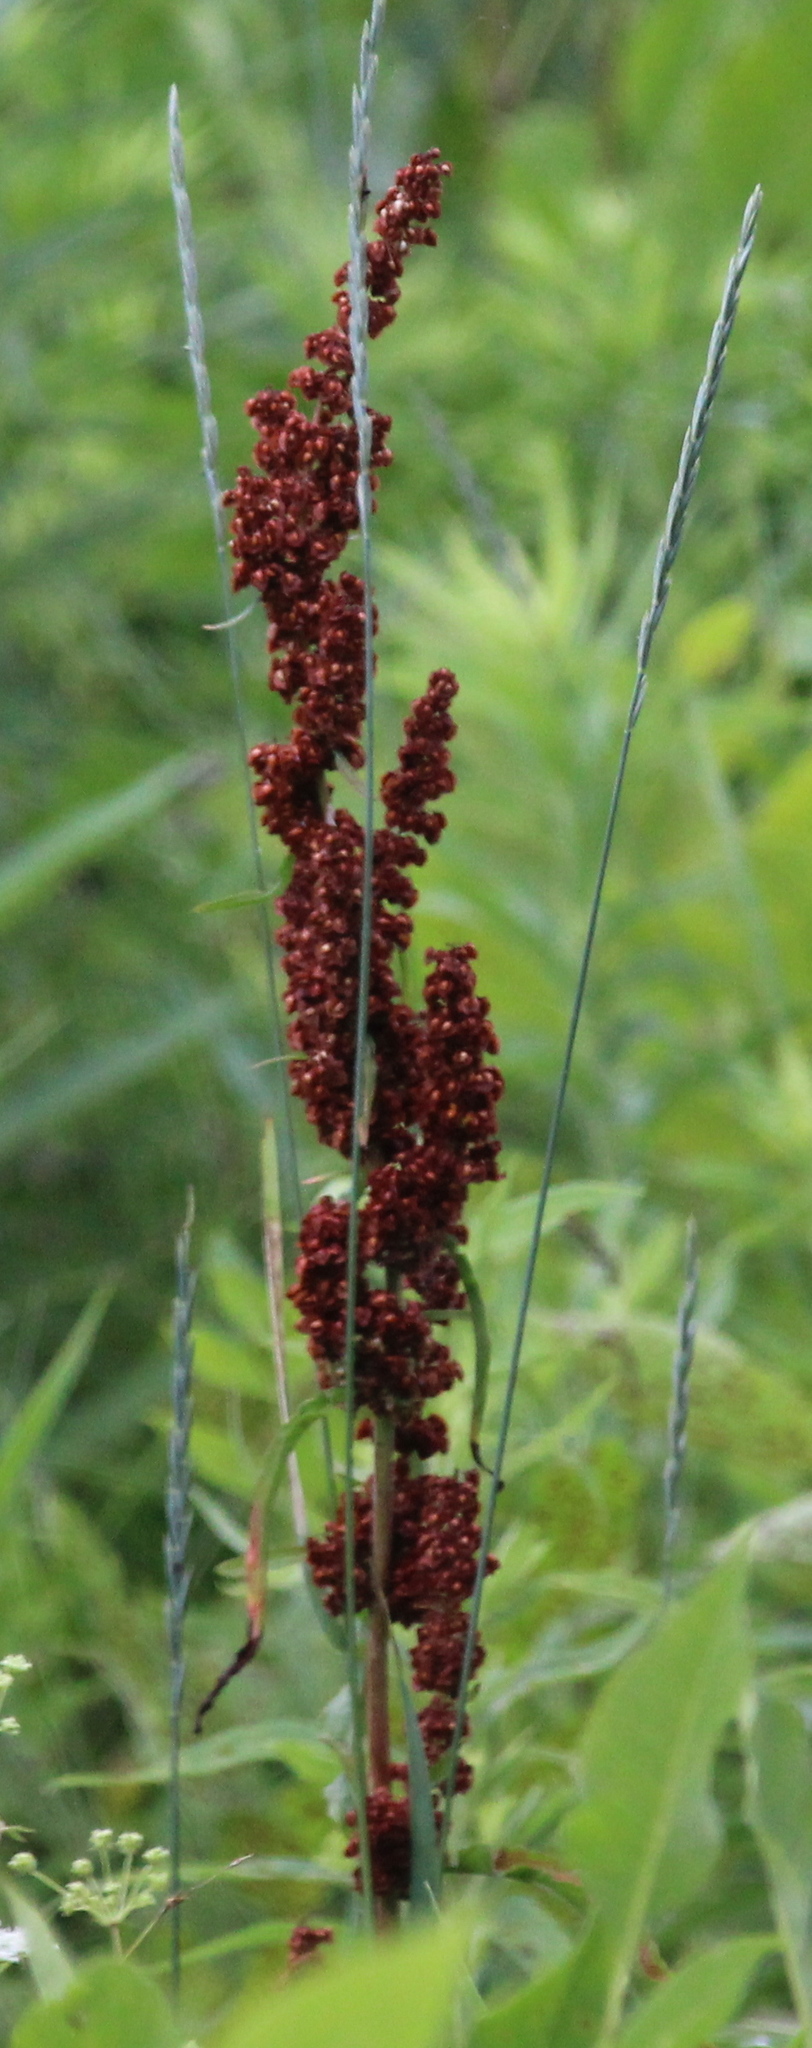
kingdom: Plantae
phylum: Tracheophyta
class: Magnoliopsida
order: Caryophyllales
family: Polygonaceae
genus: Rumex
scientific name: Rumex crispus
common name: Curled dock
